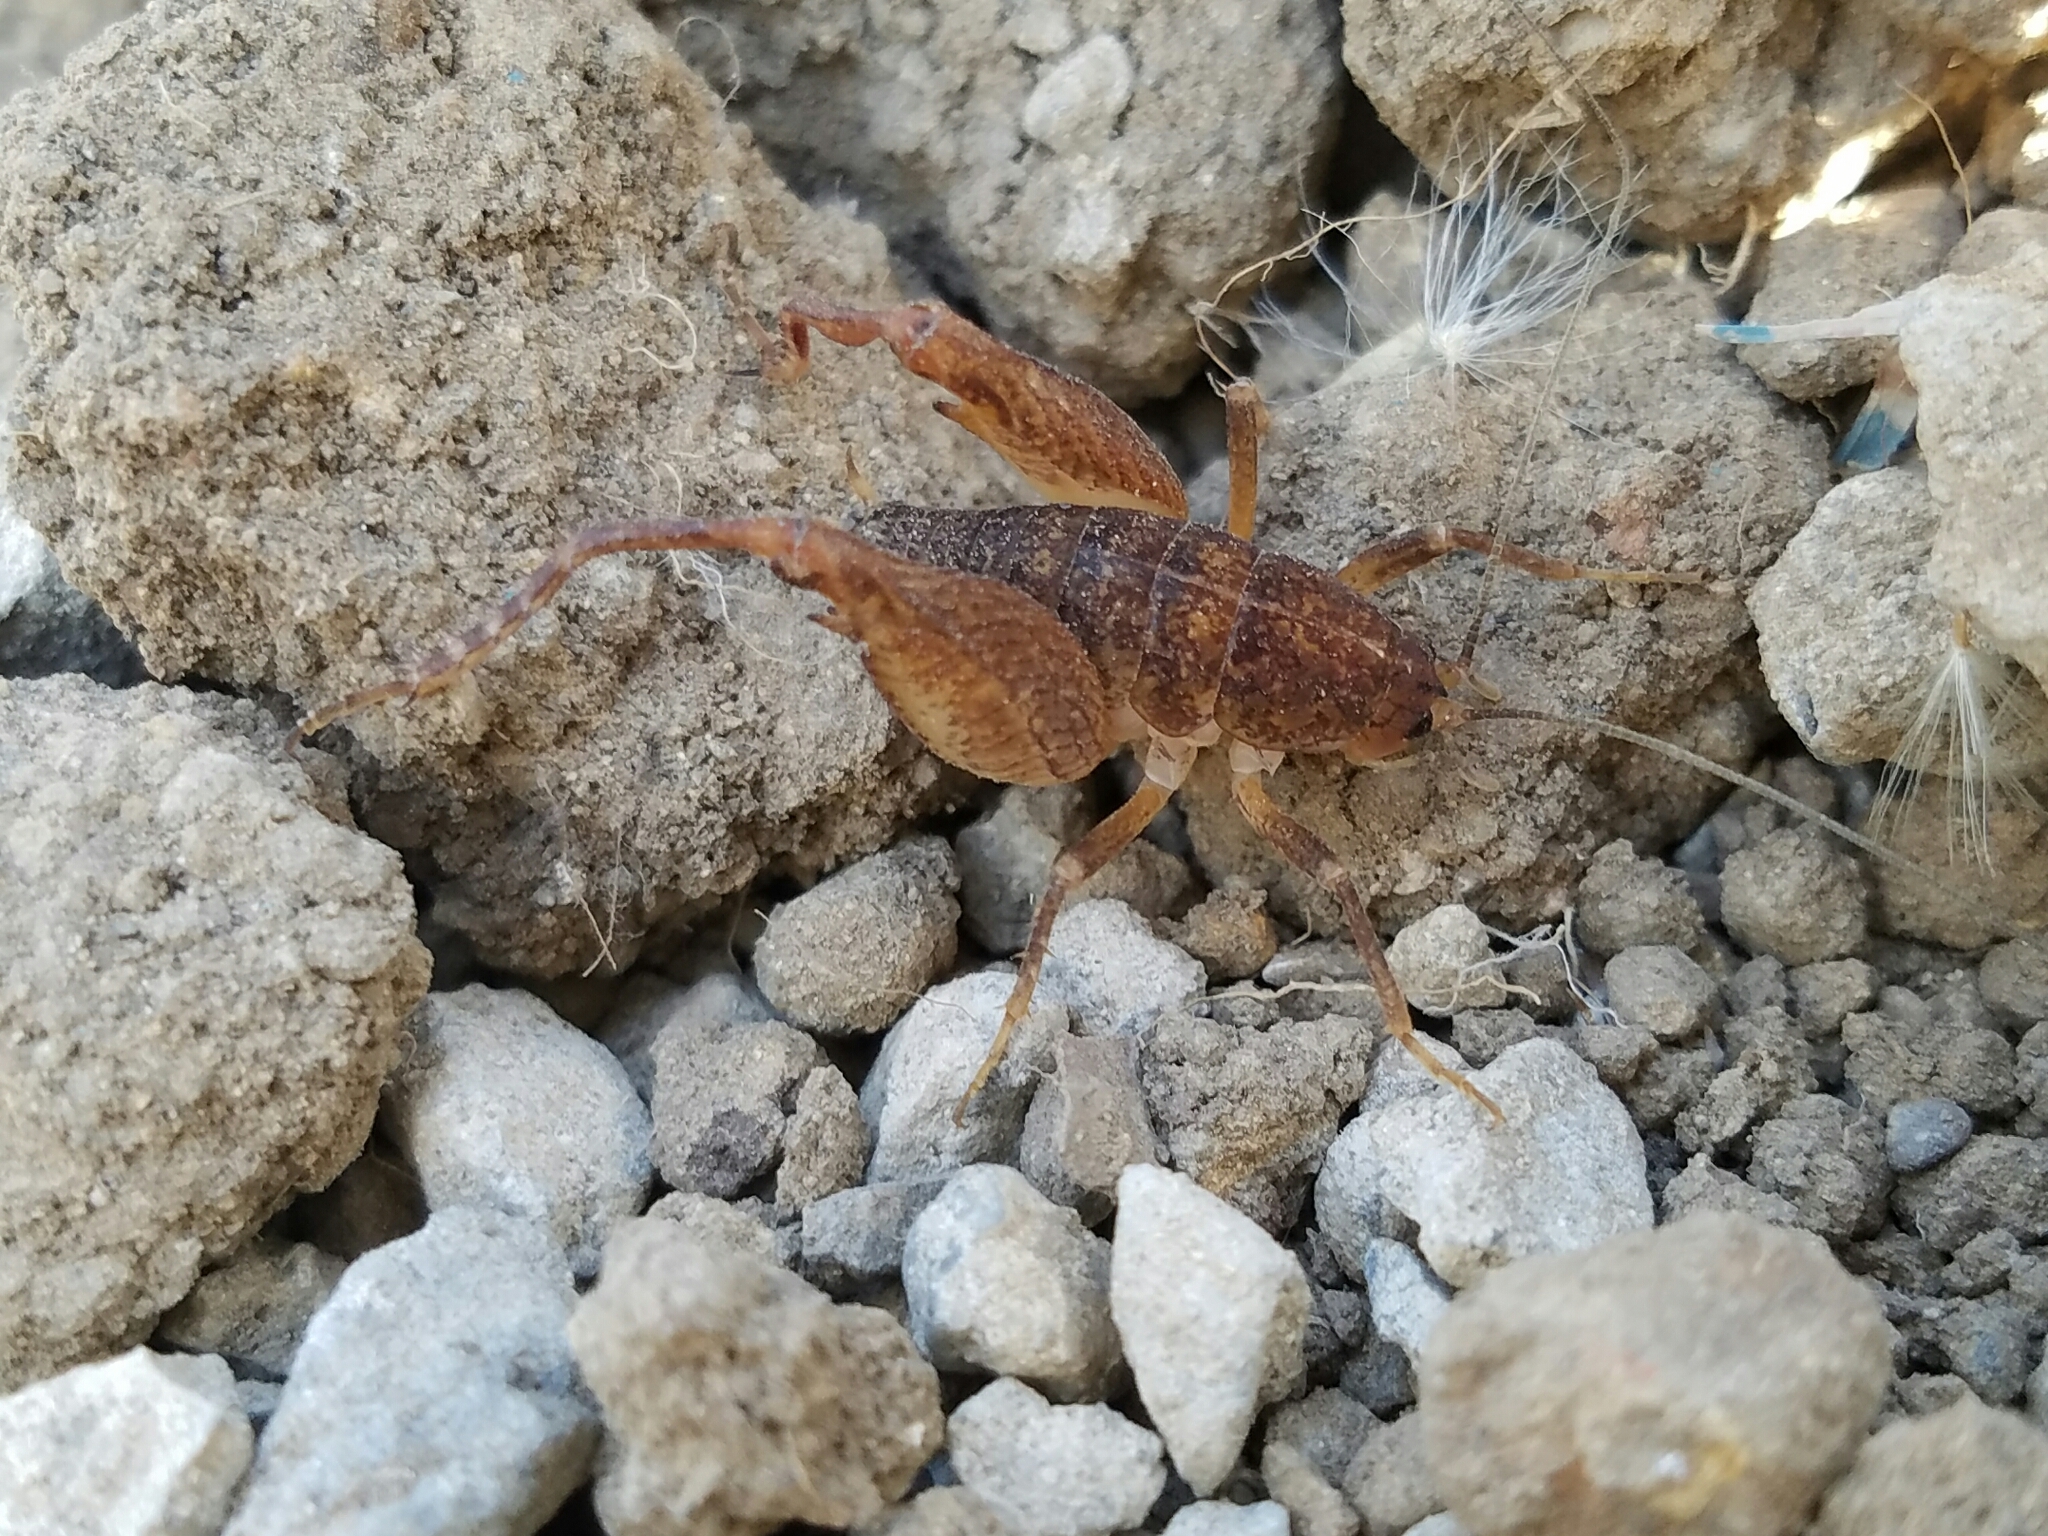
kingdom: Animalia
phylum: Arthropoda
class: Insecta
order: Orthoptera
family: Rhaphidophoridae
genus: Pristoceuthophilus
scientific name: Pristoceuthophilus pacificus
